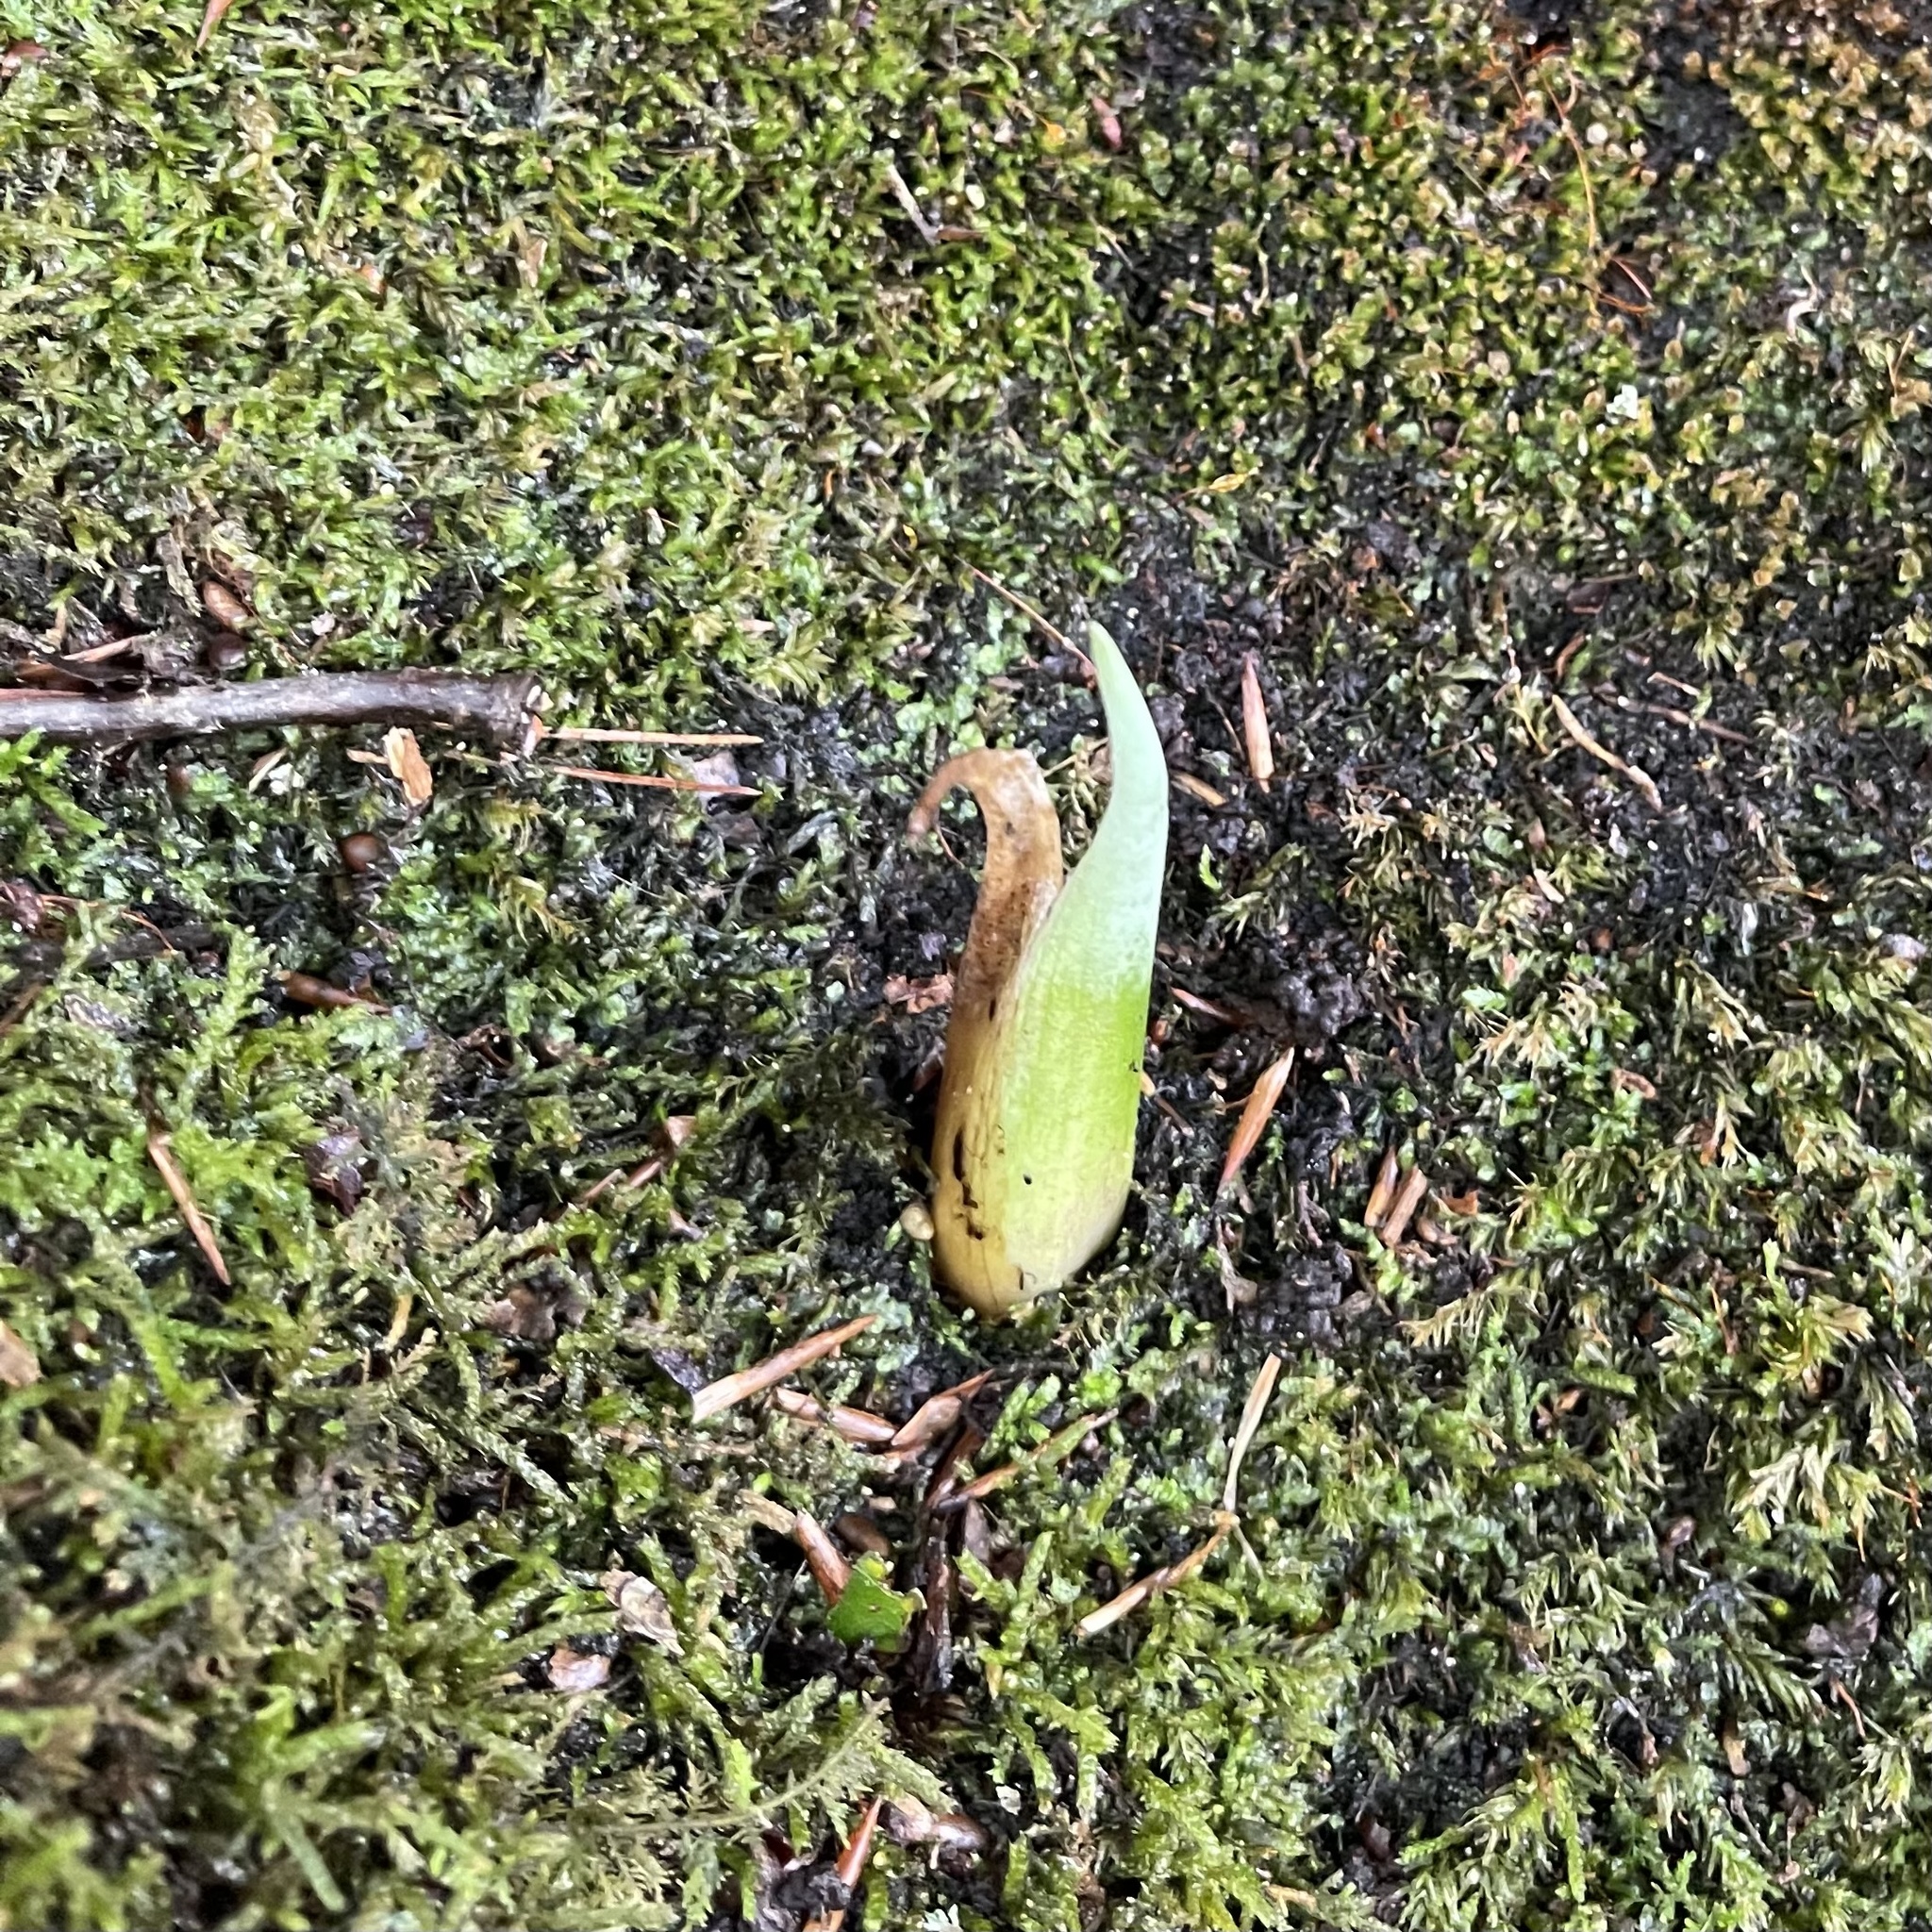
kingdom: Plantae
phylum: Tracheophyta
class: Liliopsida
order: Alismatales
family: Araceae
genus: Symplocarpus
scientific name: Symplocarpus foetidus
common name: Eastern skunk cabbage
